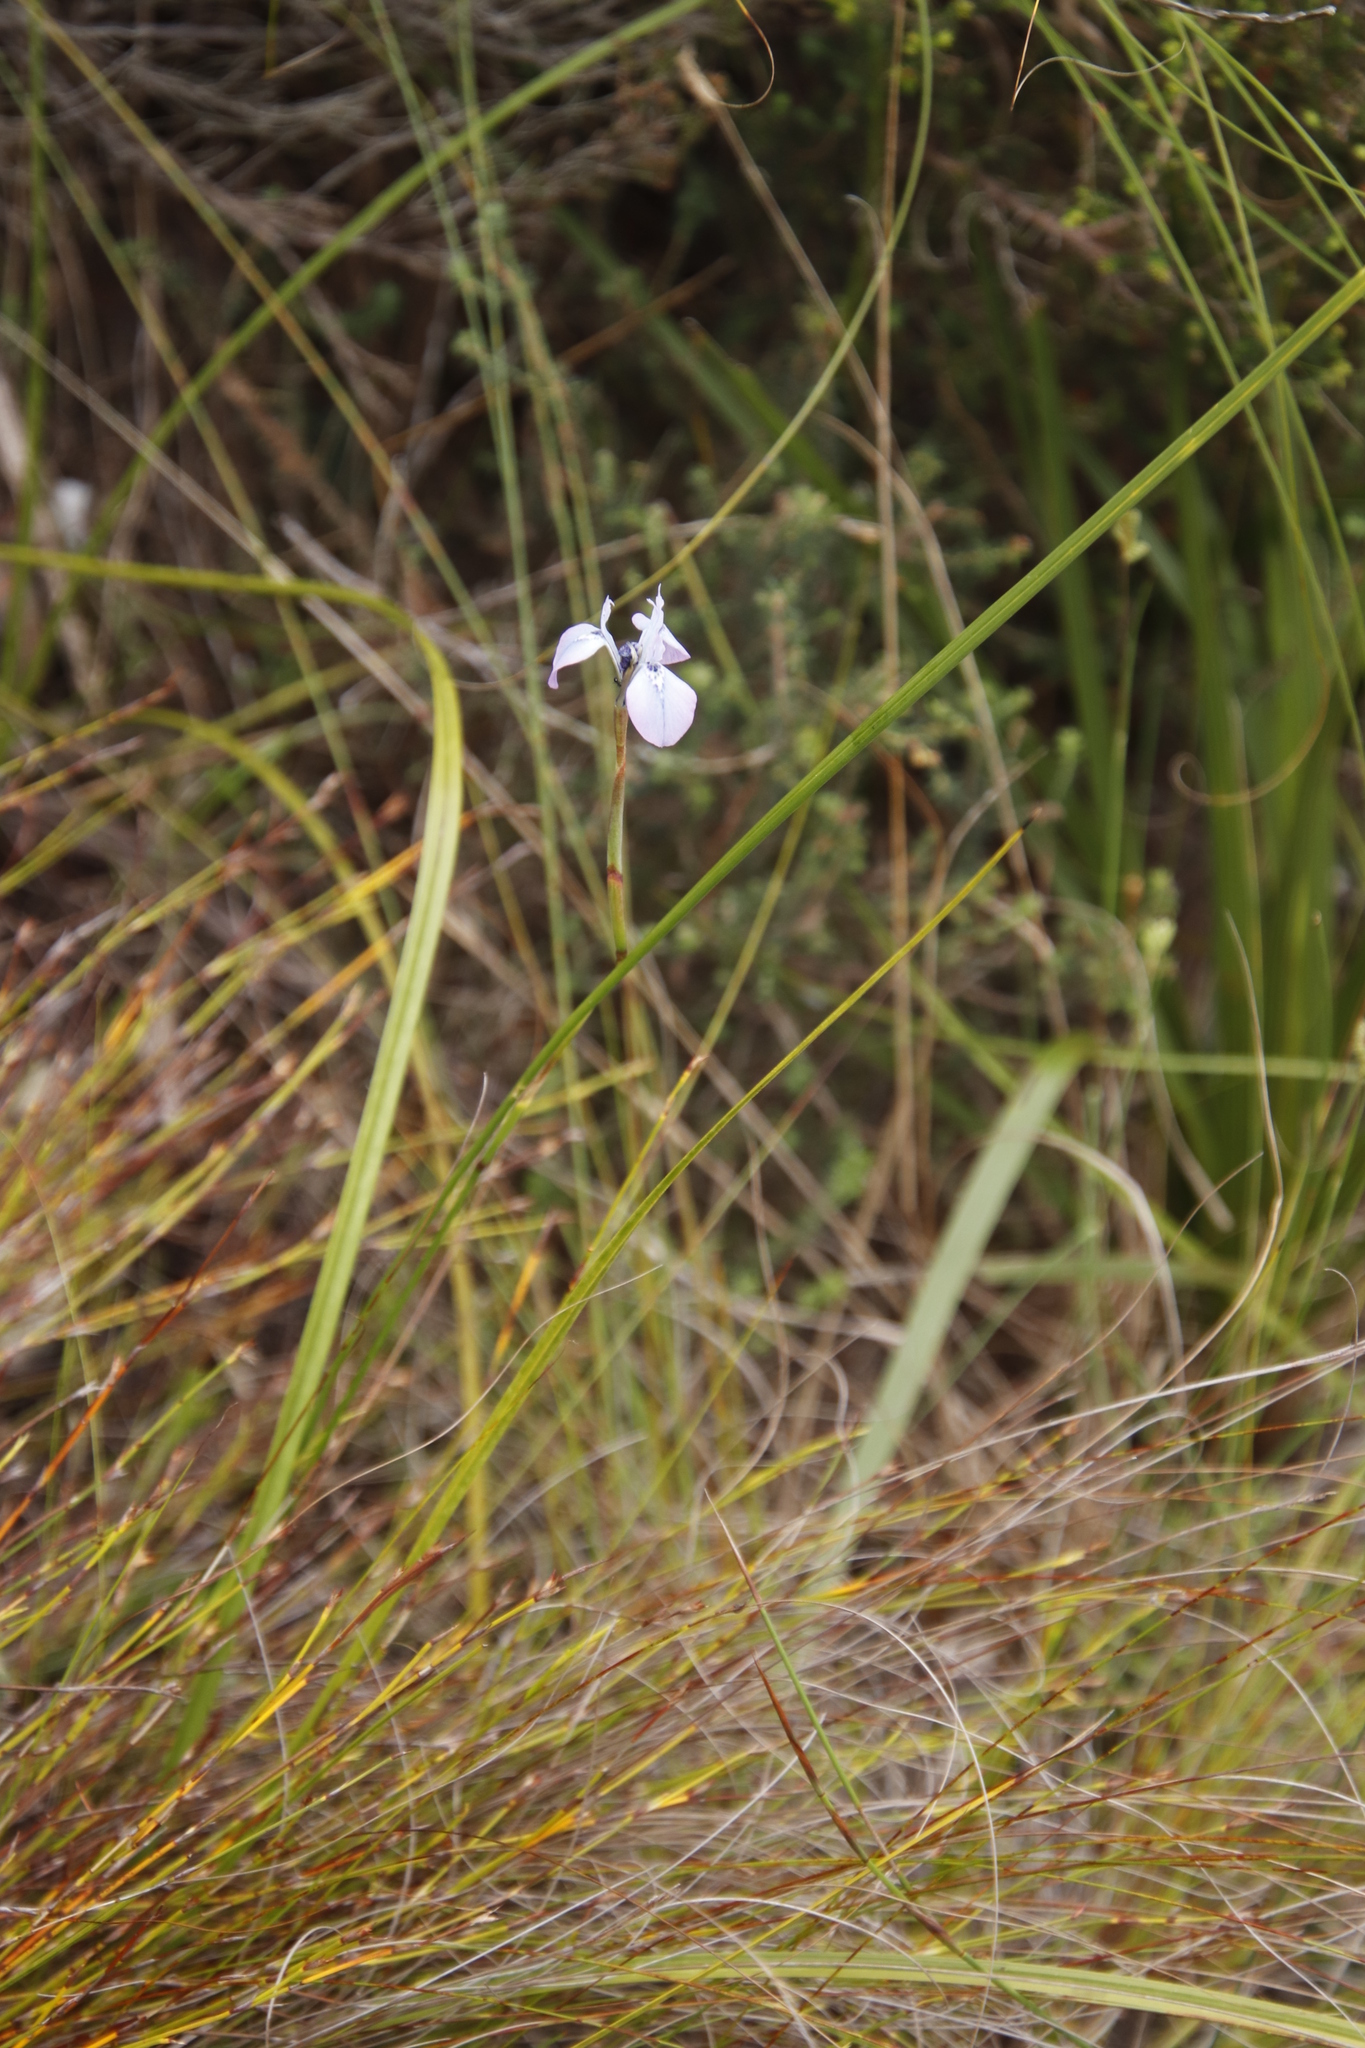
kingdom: Plantae
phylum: Tracheophyta
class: Liliopsida
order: Asparagales
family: Iridaceae
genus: Moraea
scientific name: Moraea tripetala
